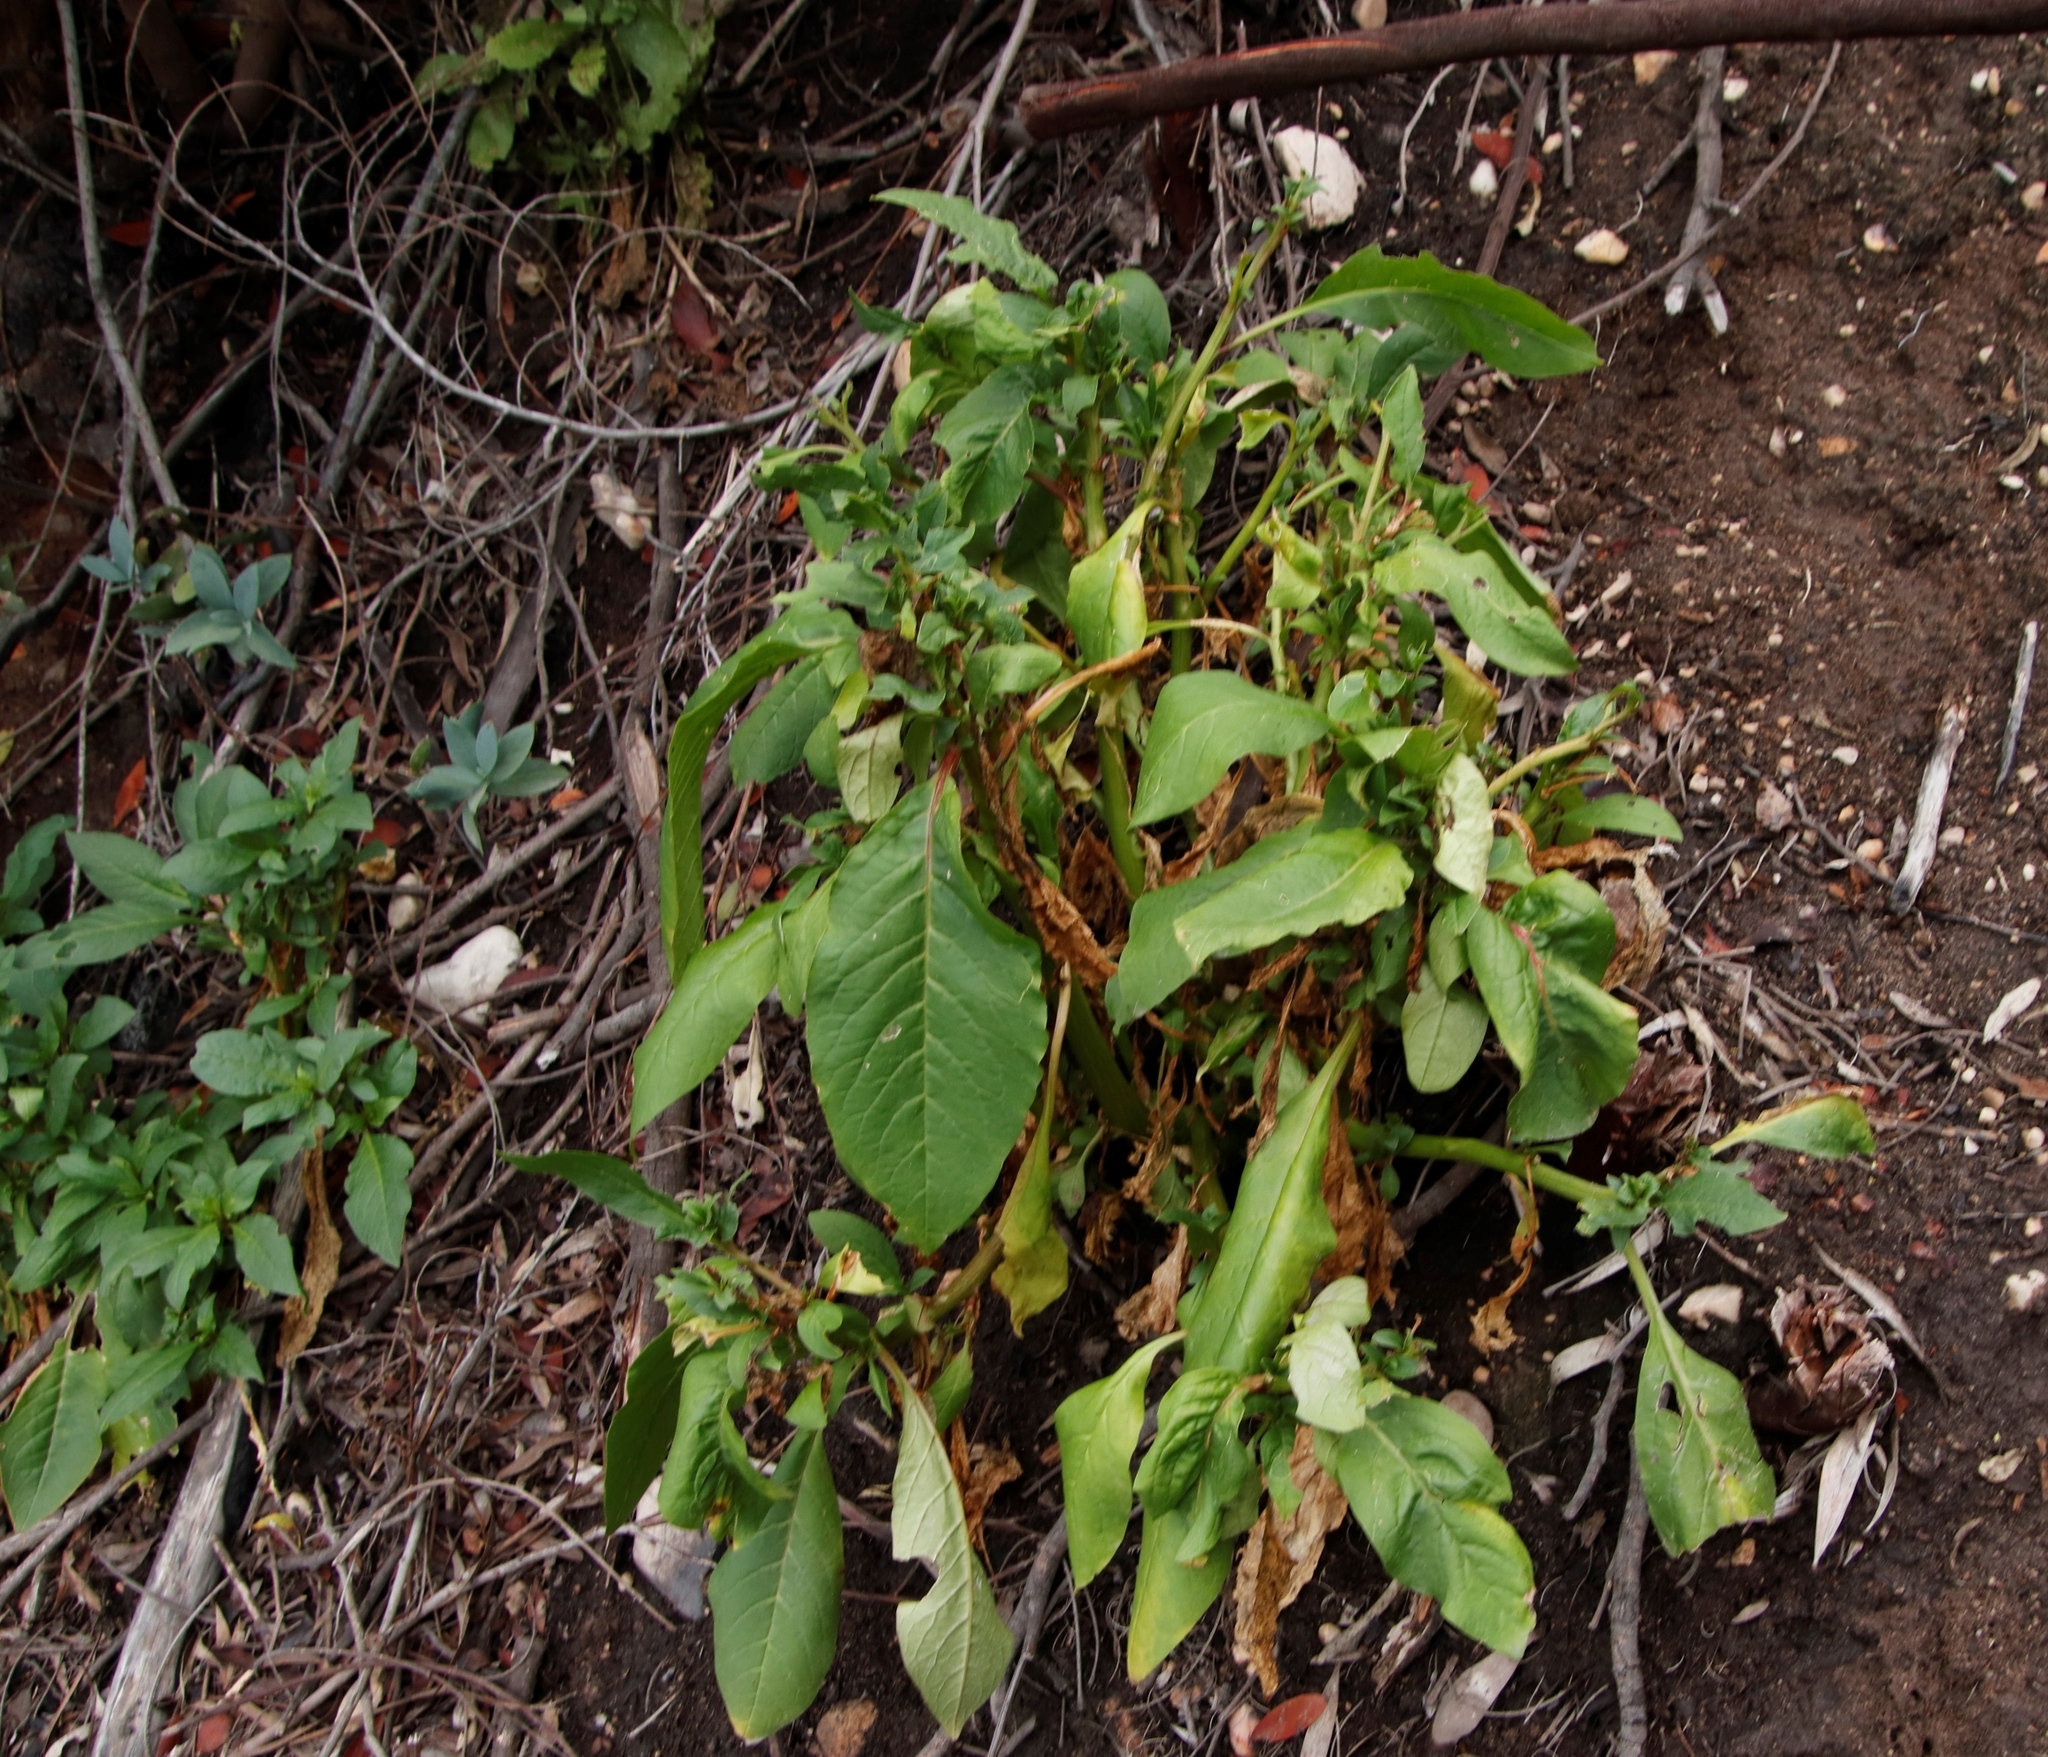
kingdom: Plantae
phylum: Tracheophyta
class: Magnoliopsida
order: Caryophyllales
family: Phytolaccaceae
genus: Phytolacca
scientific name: Phytolacca icosandra
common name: Button pokeweed
